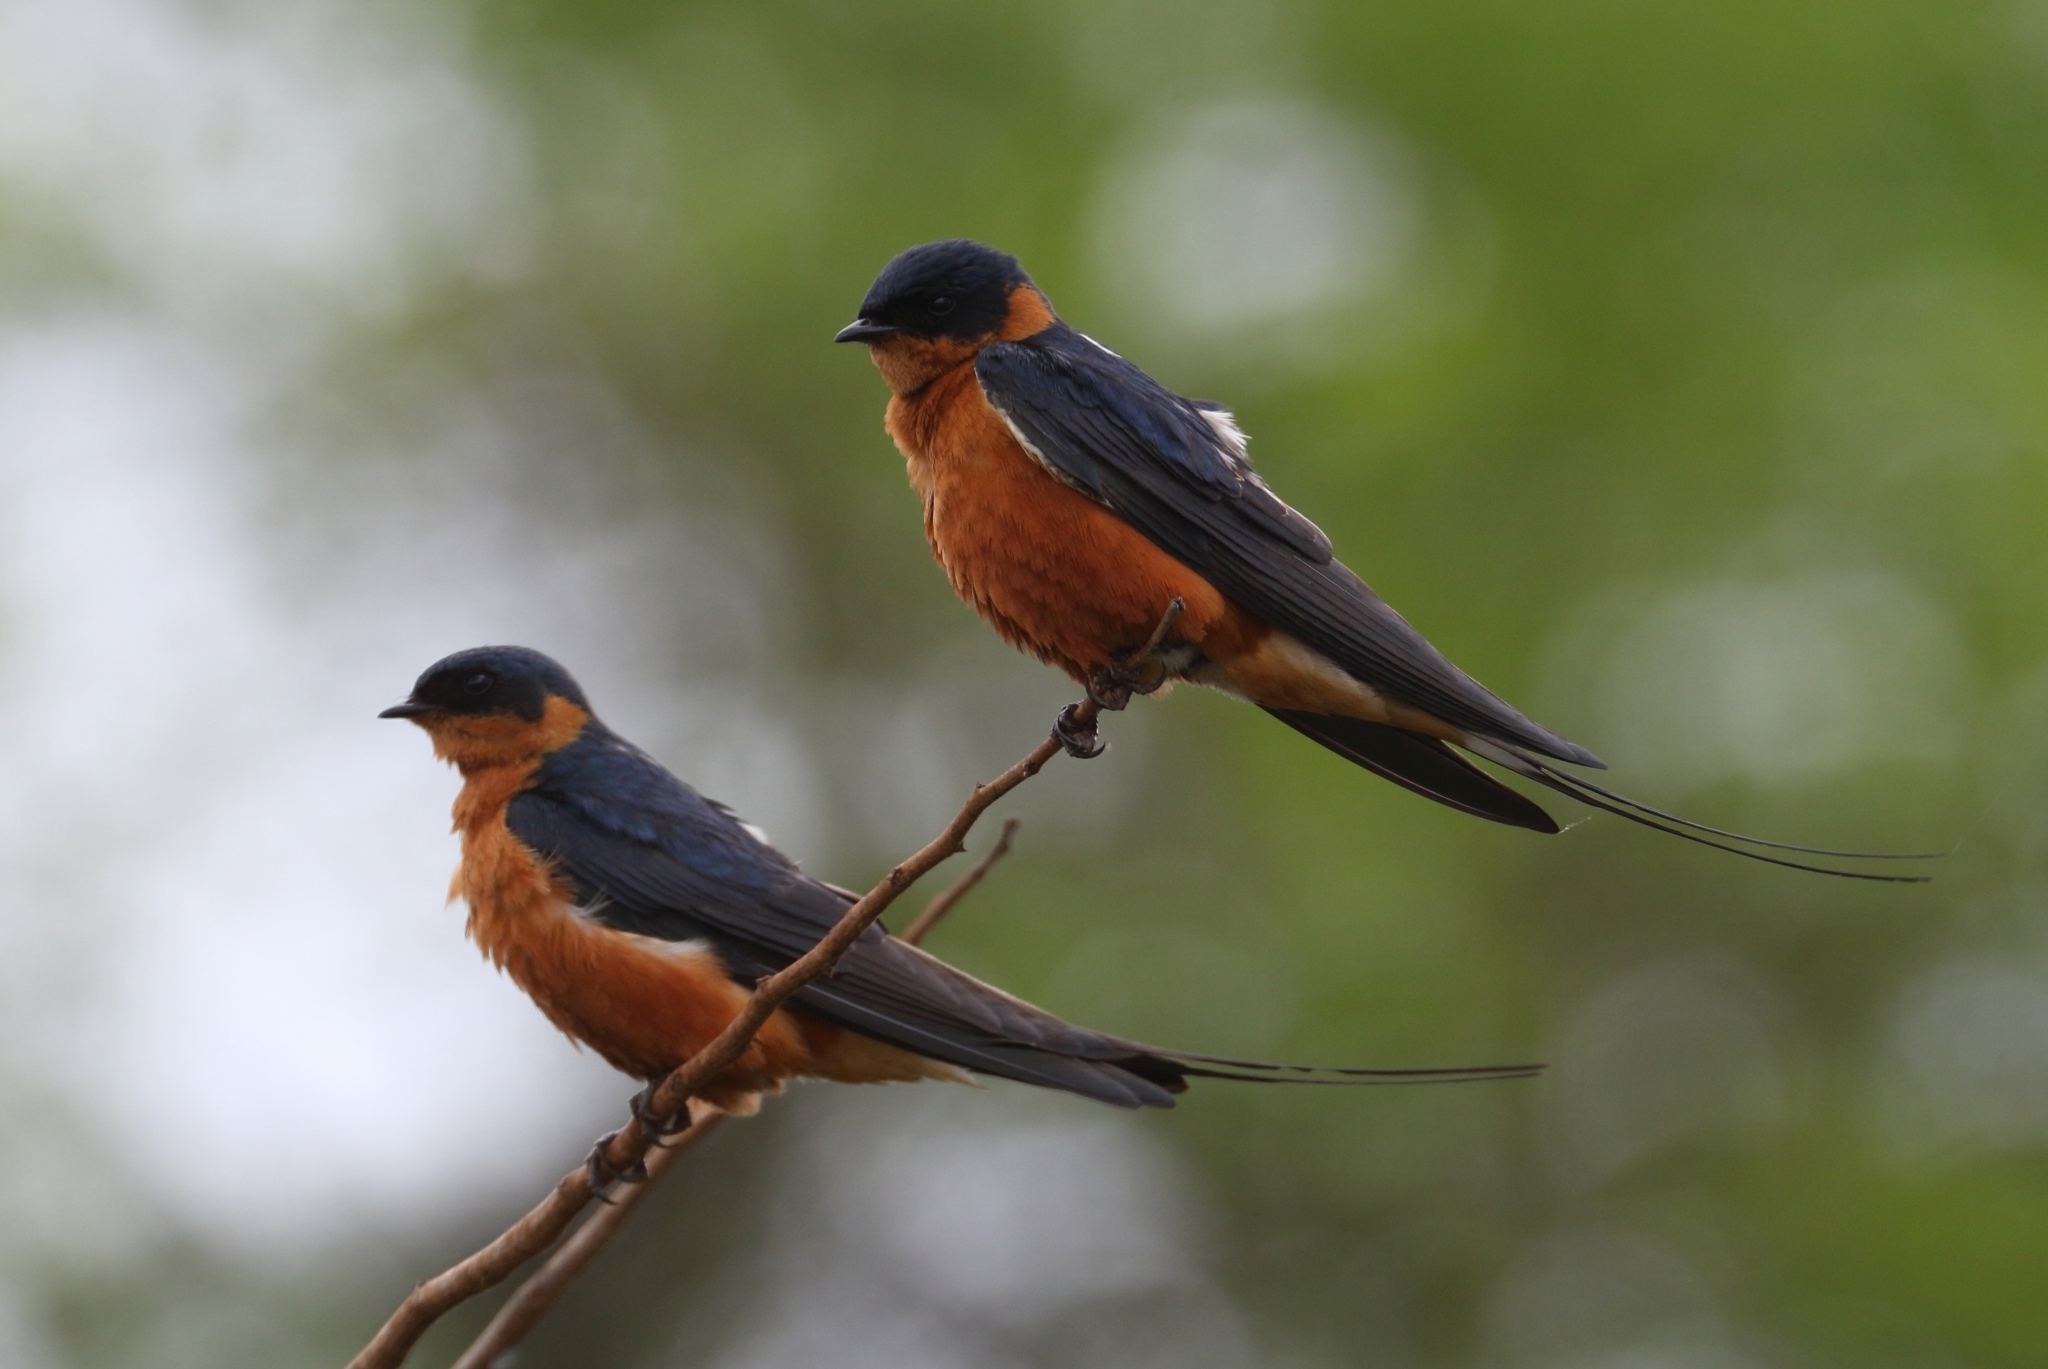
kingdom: Animalia
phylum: Chordata
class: Aves
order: Passeriformes
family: Hirundinidae
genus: Cecropis
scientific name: Cecropis semirufa
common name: Red-breasted swallow
